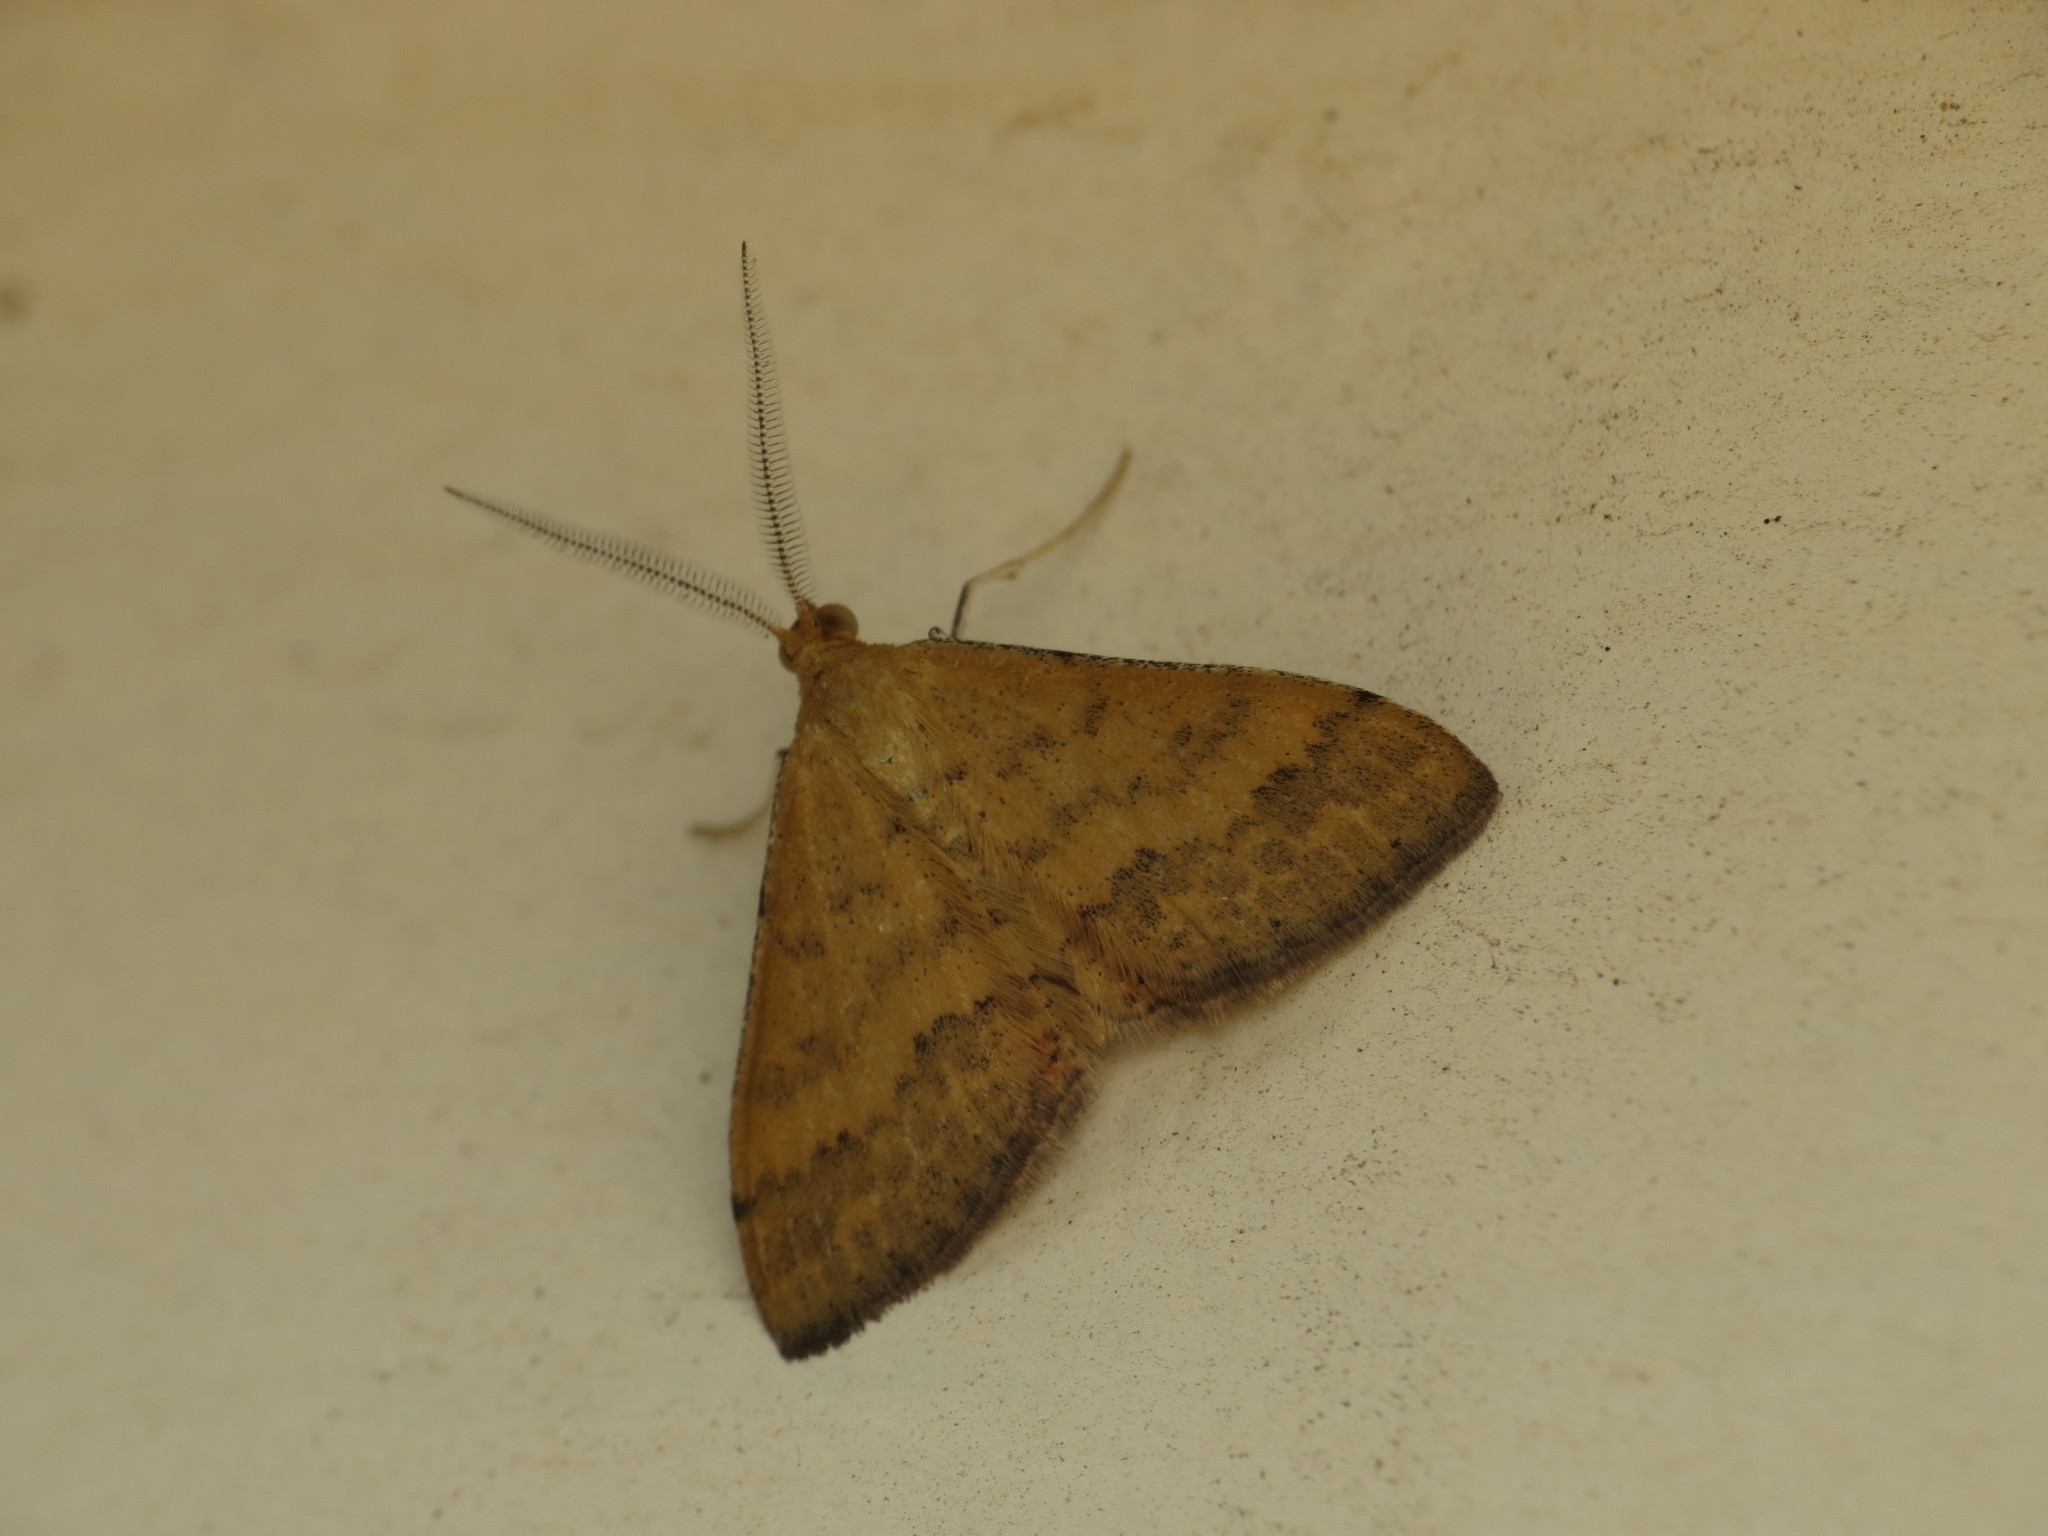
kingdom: Animalia
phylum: Arthropoda
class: Insecta
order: Lepidoptera
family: Geometridae
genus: Scopula
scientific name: Scopula rubraria
